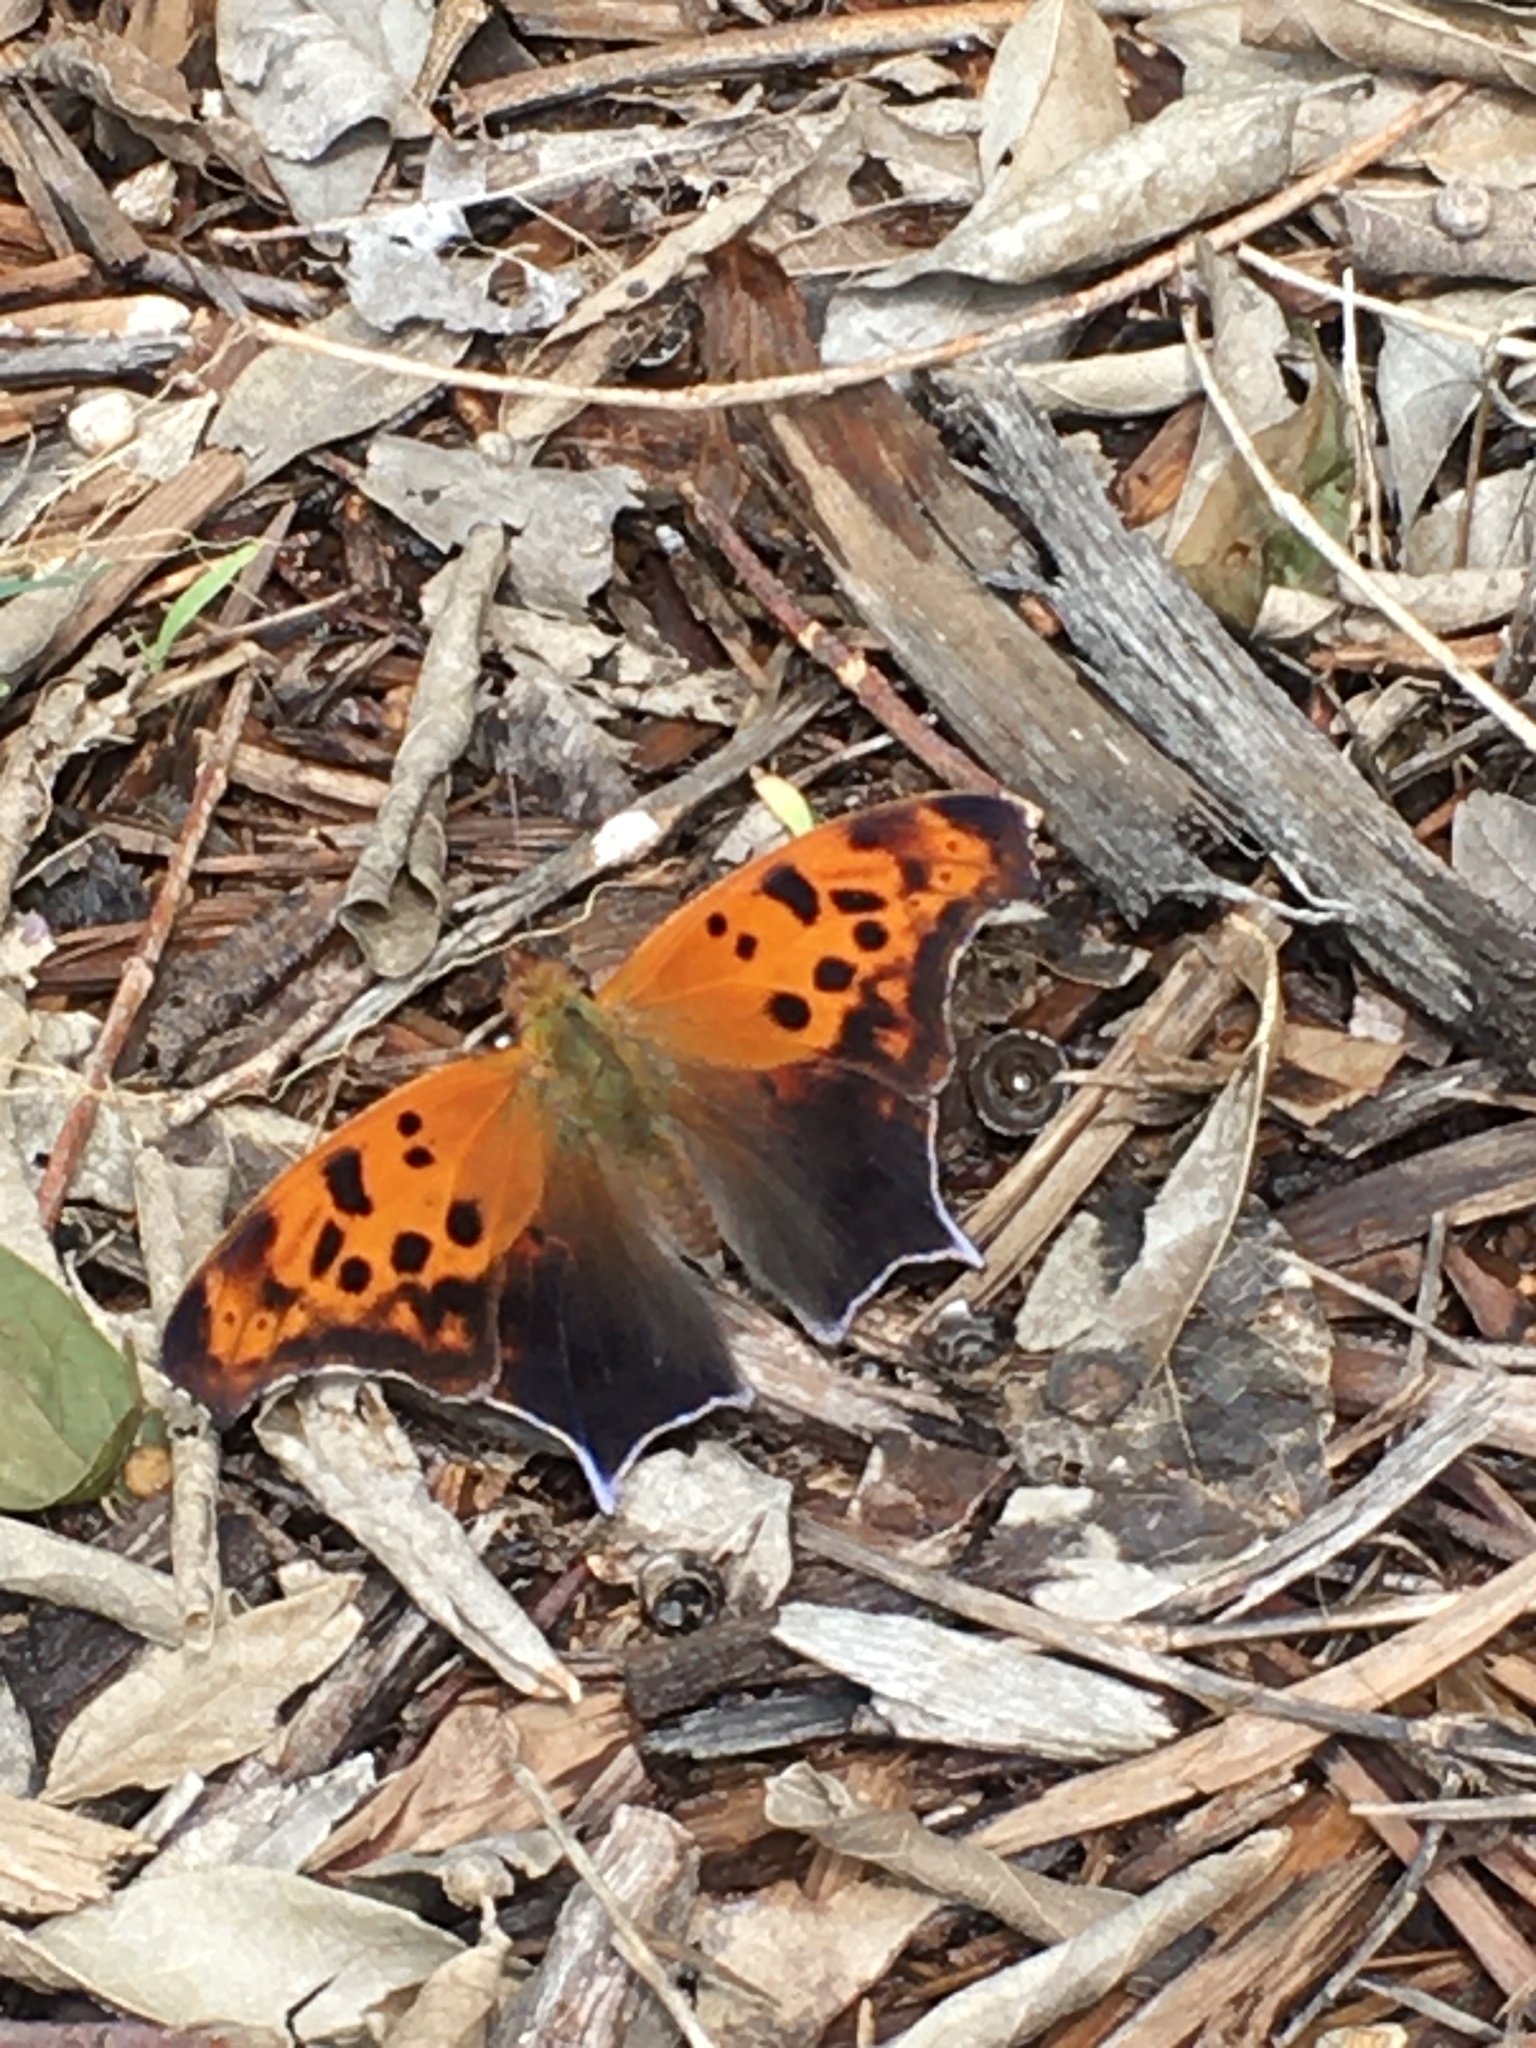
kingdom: Animalia
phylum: Arthropoda
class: Insecta
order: Lepidoptera
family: Nymphalidae
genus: Polygonia
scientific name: Polygonia interrogationis
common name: Question mark
